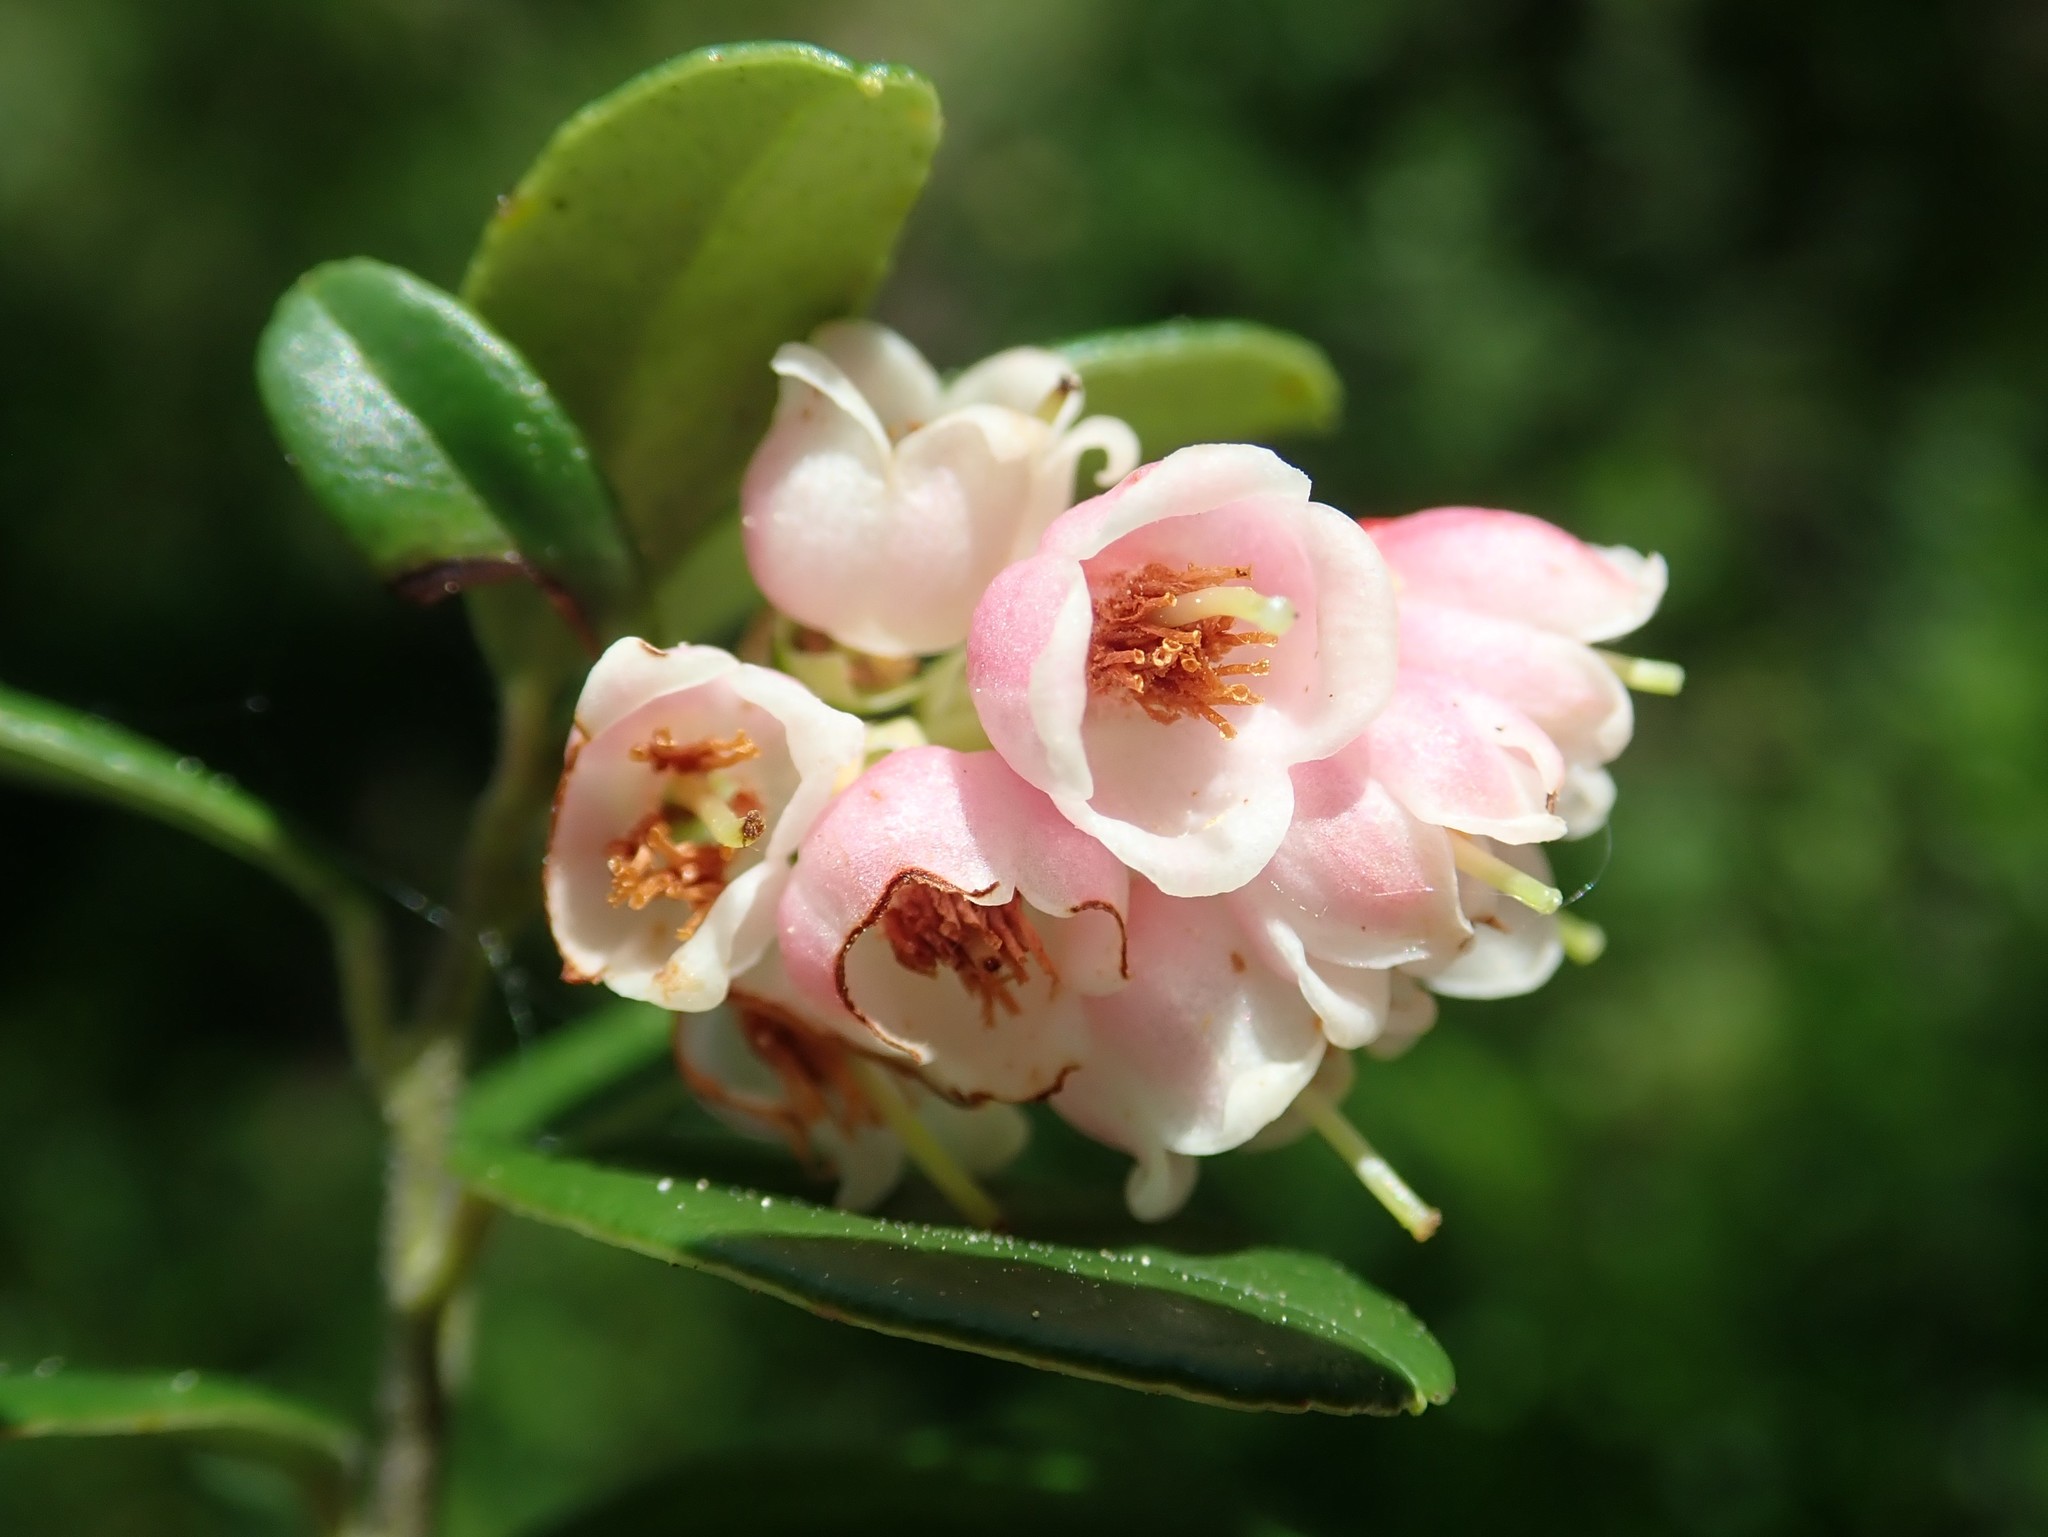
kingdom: Plantae
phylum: Tracheophyta
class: Magnoliopsida
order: Ericales
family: Ericaceae
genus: Vaccinium
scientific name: Vaccinium vitis-idaea
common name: Cowberry
